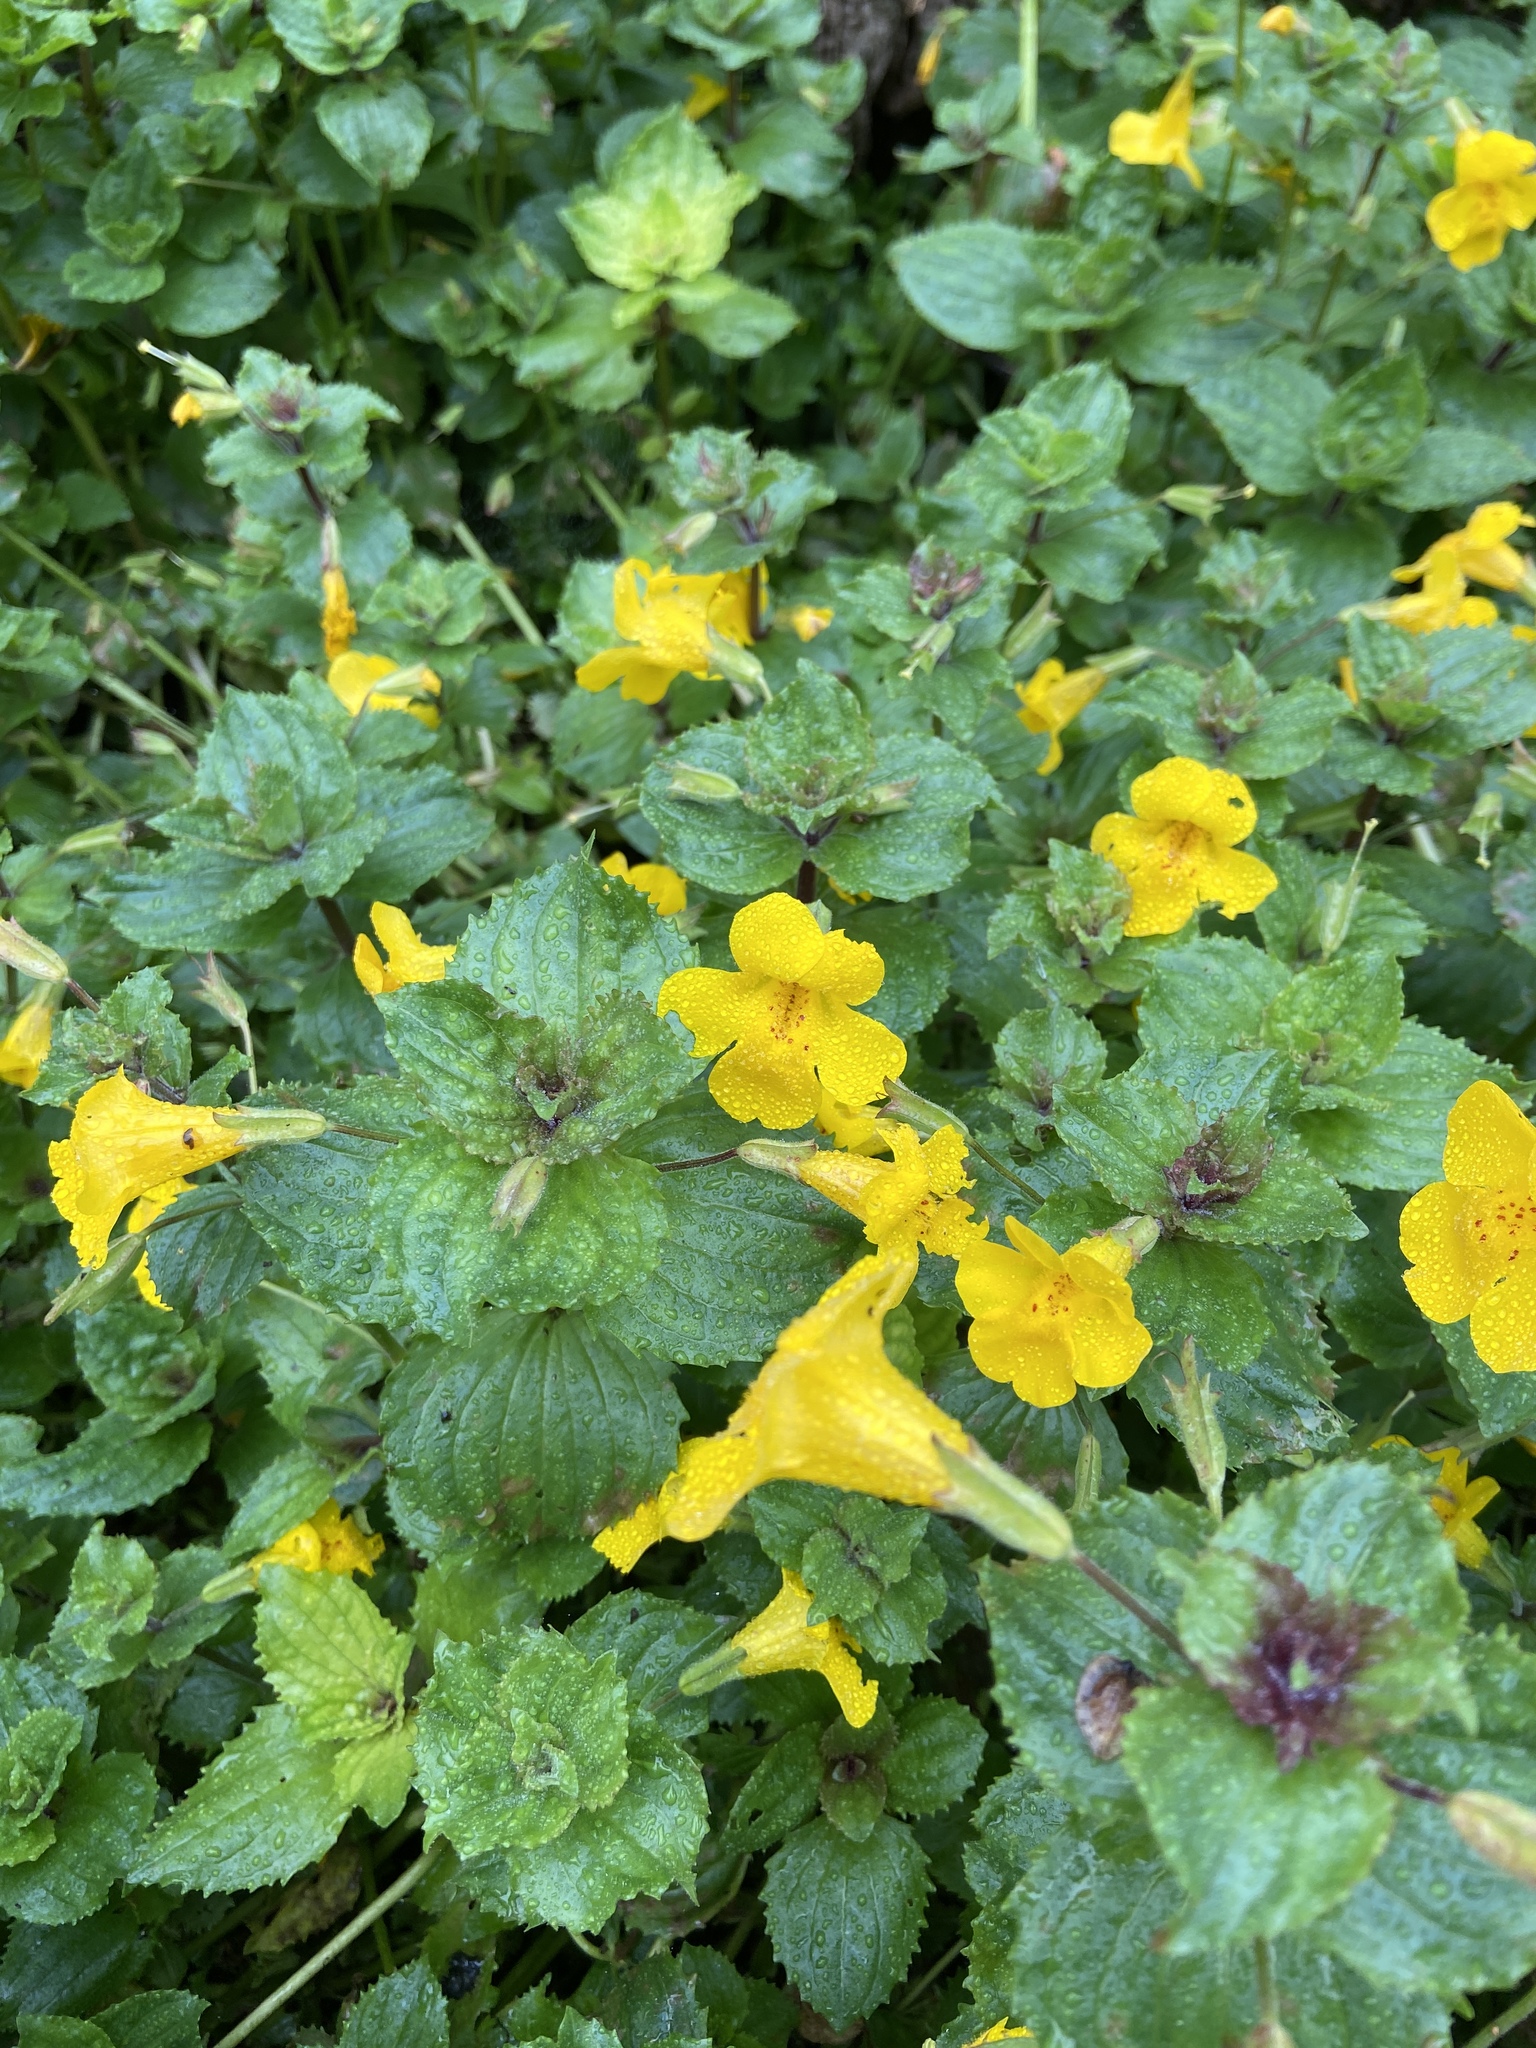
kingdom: Plantae
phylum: Tracheophyta
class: Magnoliopsida
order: Lamiales
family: Phrymaceae
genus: Erythranthe
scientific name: Erythranthe guttata
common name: Monkeyflower
